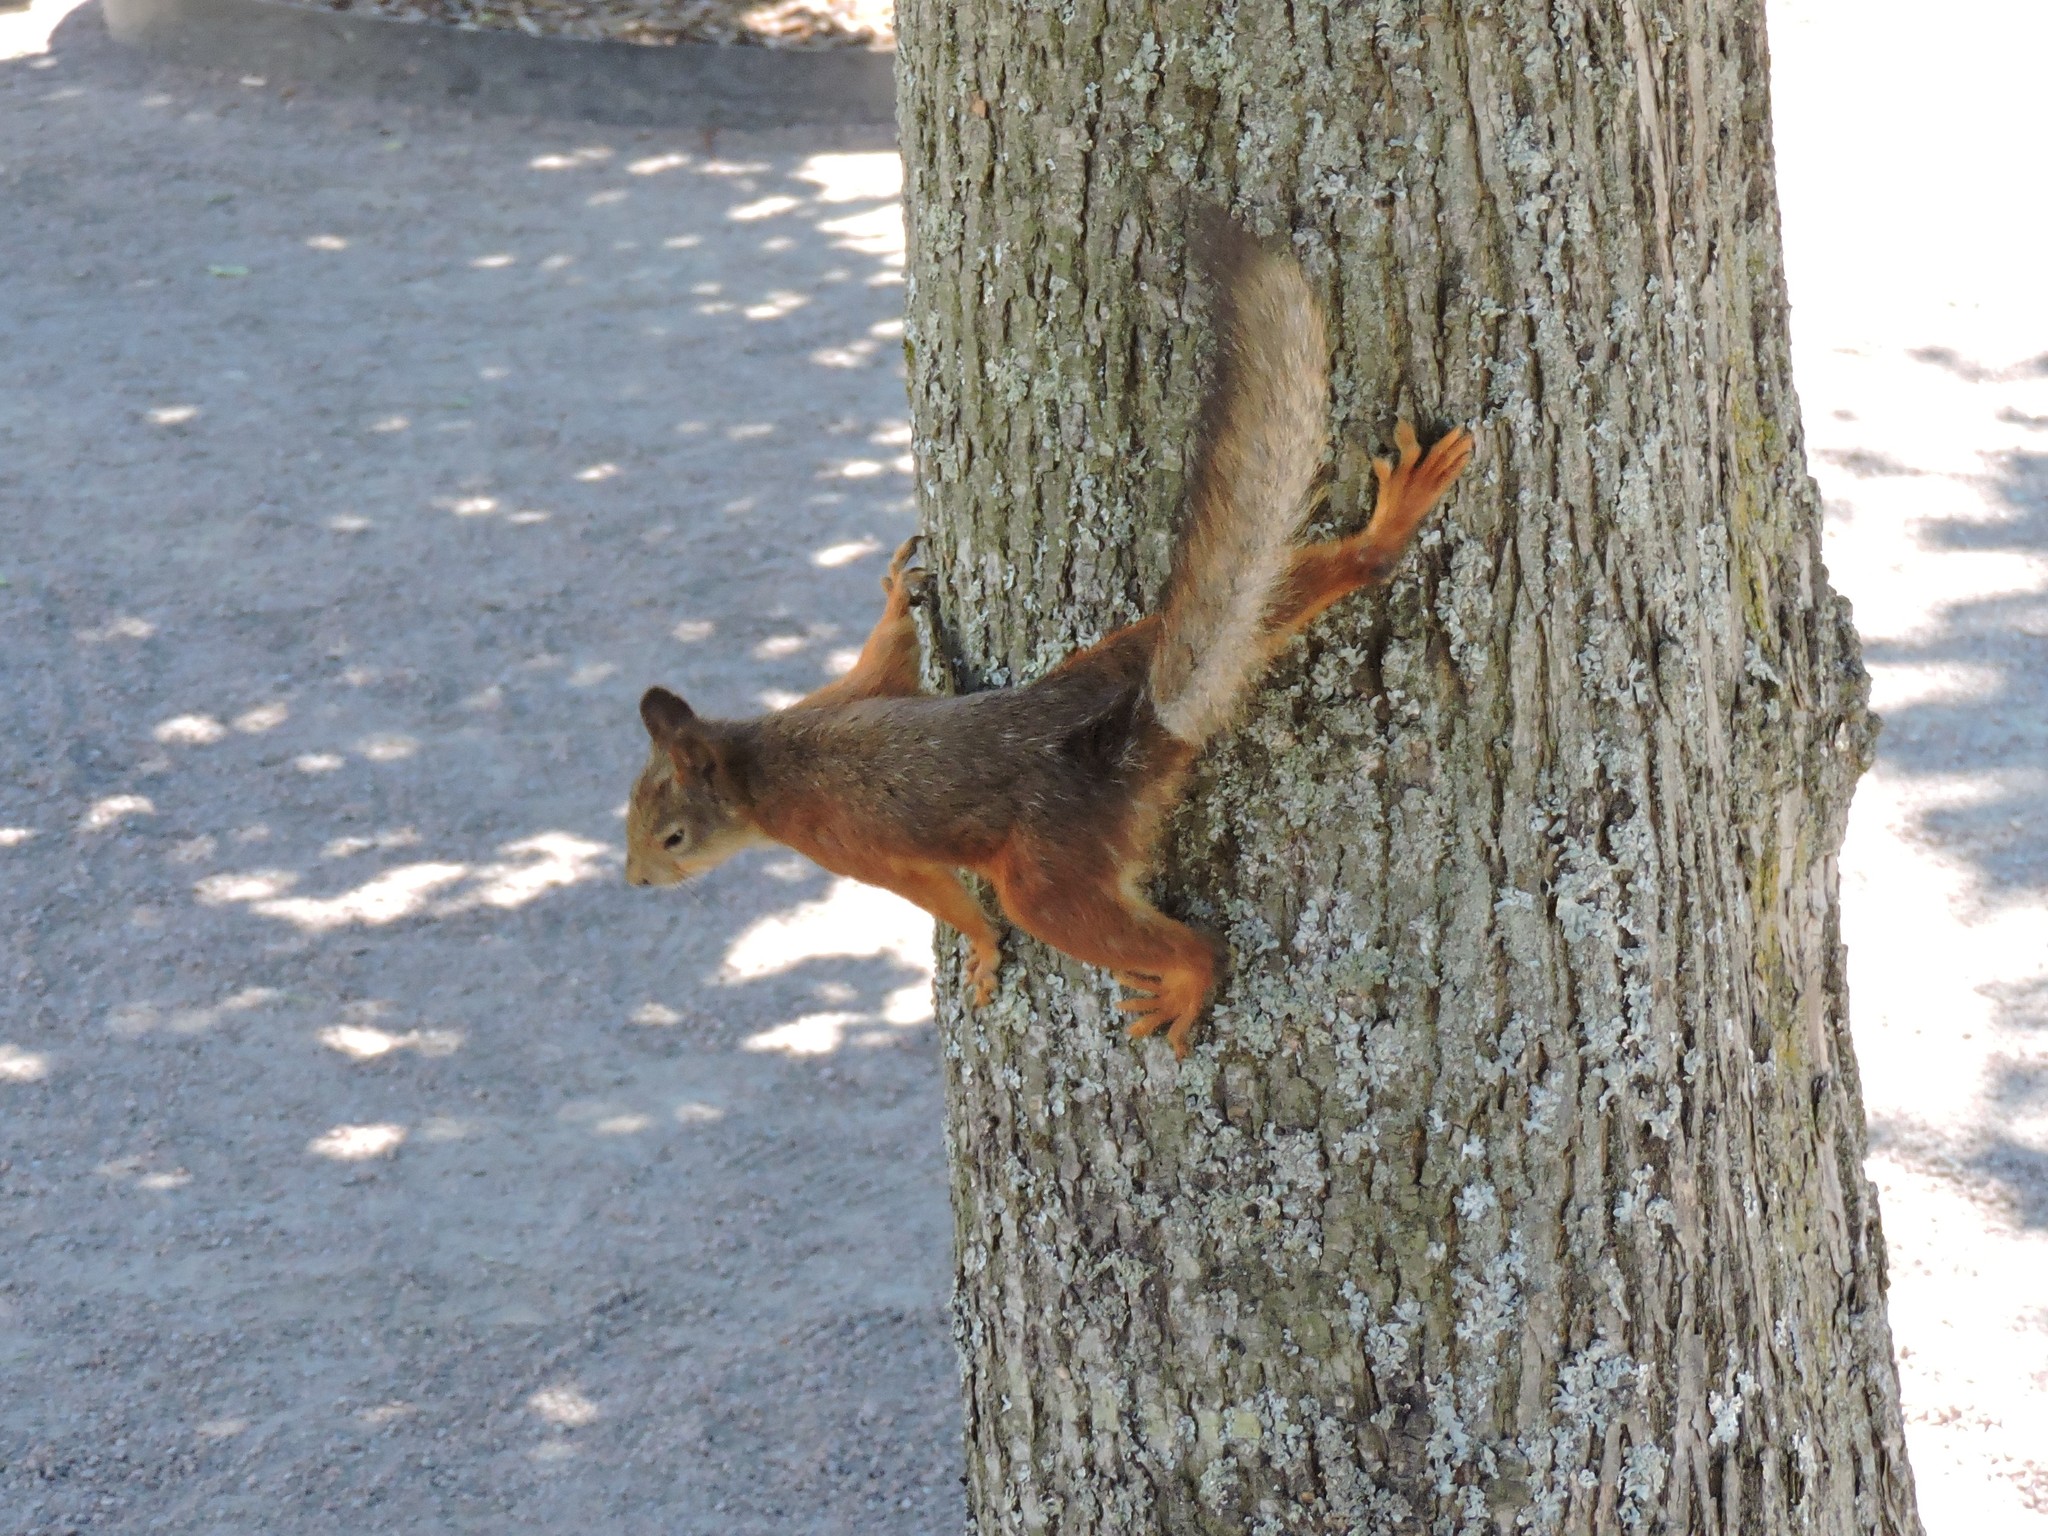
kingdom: Animalia
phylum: Chordata
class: Mammalia
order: Rodentia
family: Sciuridae
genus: Sciurus
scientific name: Sciurus vulgaris
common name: Eurasian red squirrel
